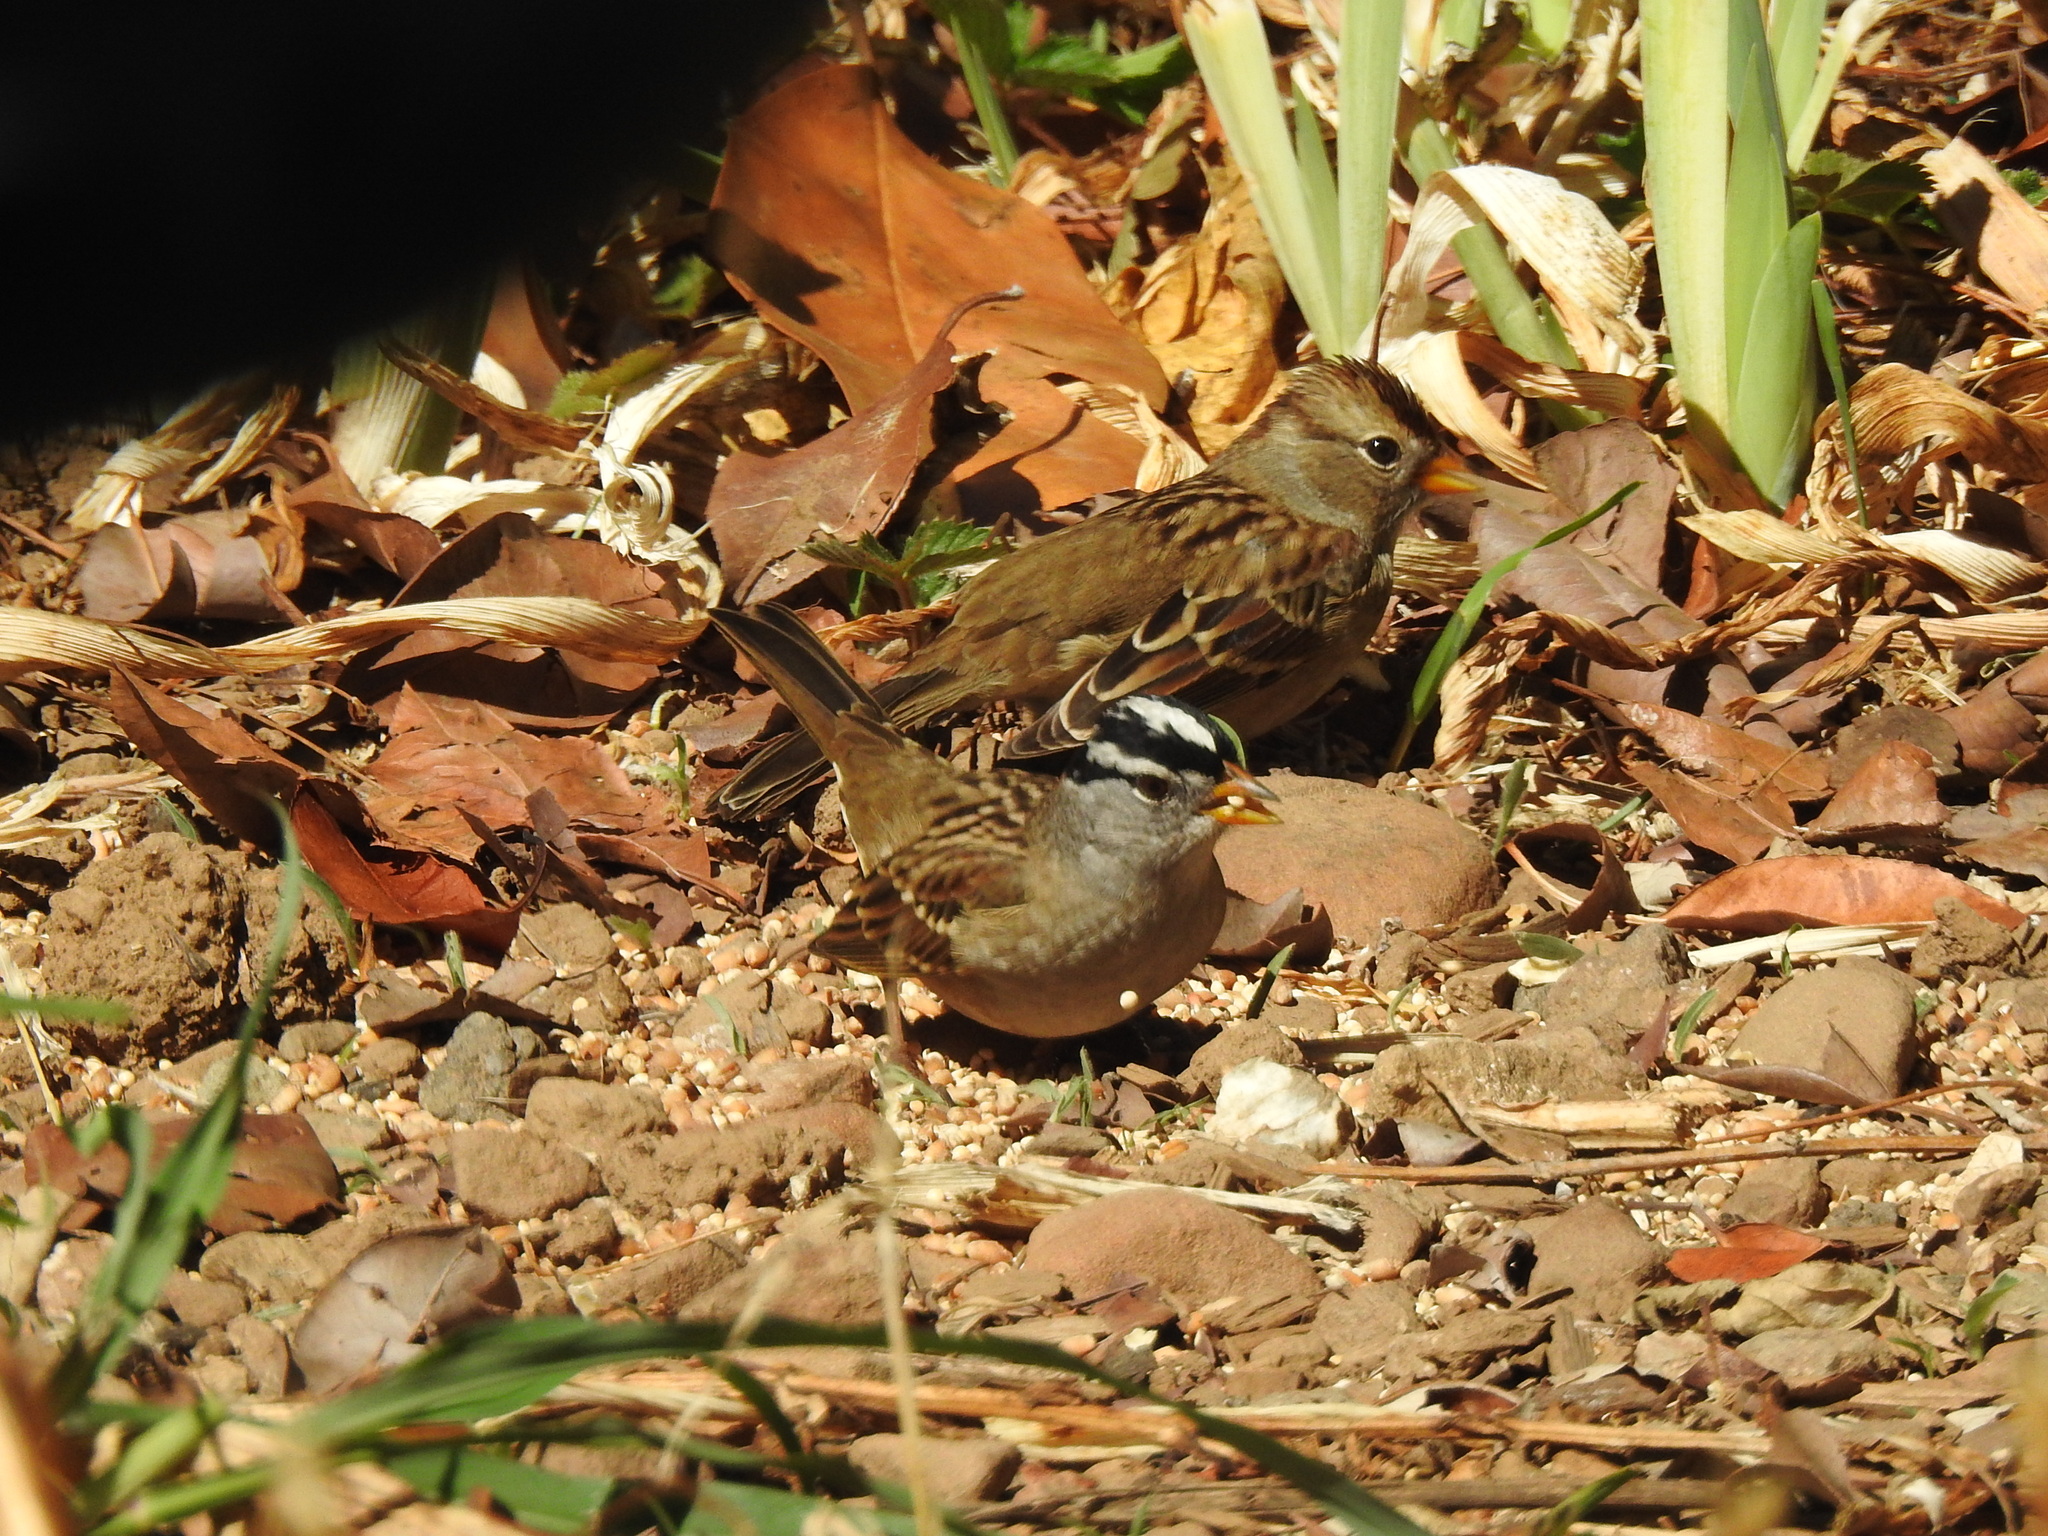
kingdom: Animalia
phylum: Chordata
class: Aves
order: Passeriformes
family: Passerellidae
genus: Zonotrichia
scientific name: Zonotrichia leucophrys
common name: White-crowned sparrow
